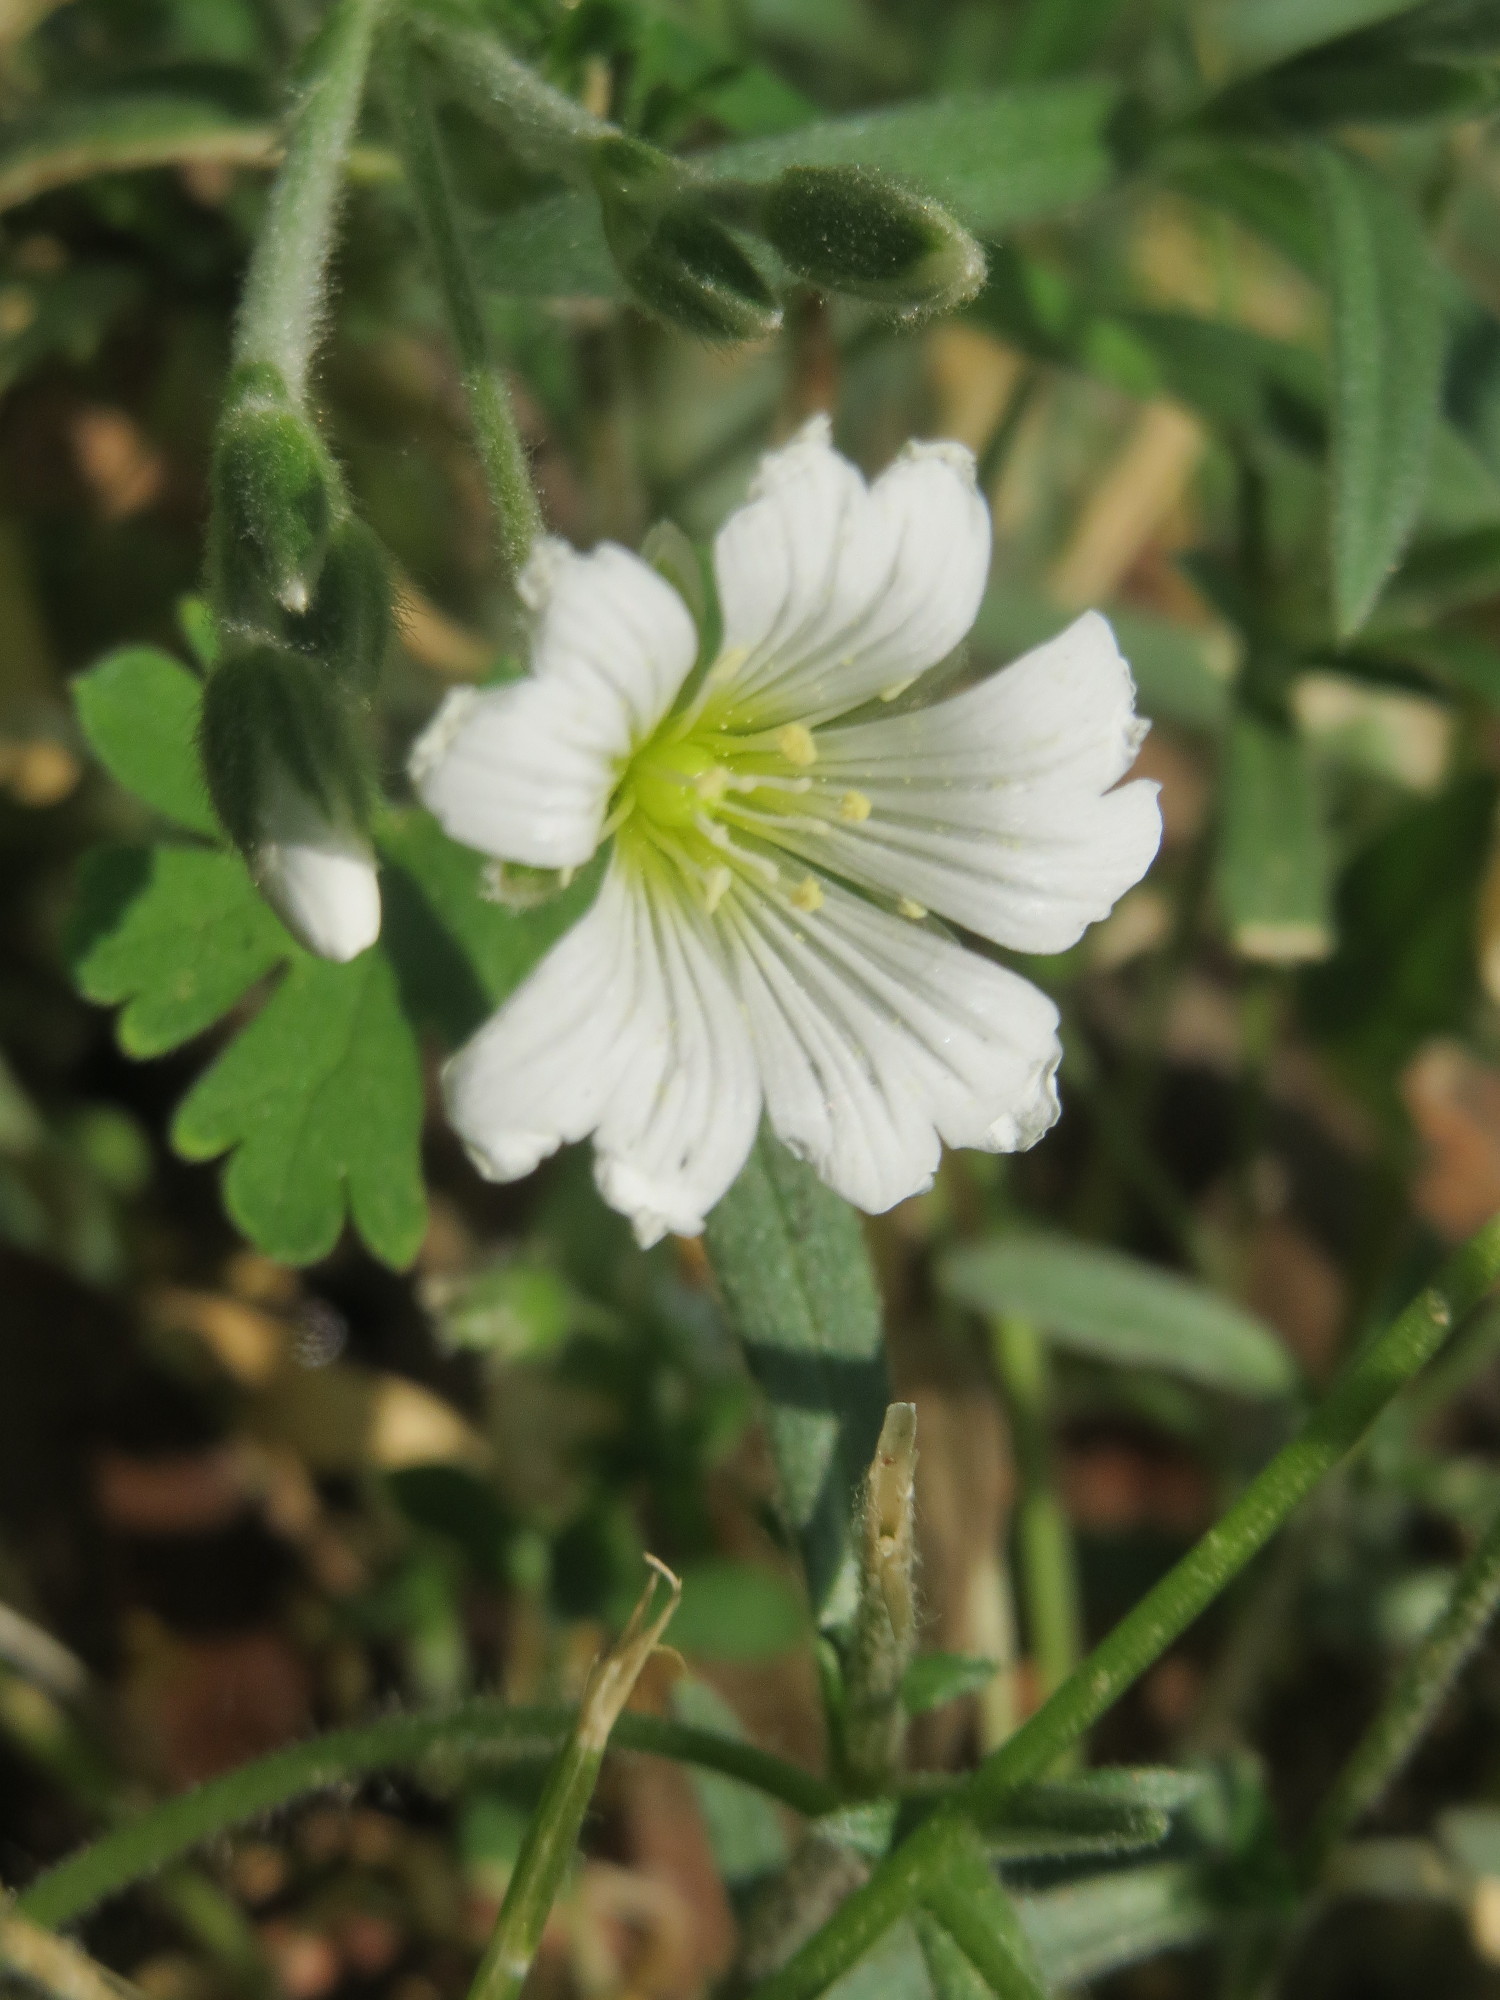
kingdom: Plantae
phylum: Tracheophyta
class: Magnoliopsida
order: Caryophyllales
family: Caryophyllaceae
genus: Cerastium
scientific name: Cerastium arvense
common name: Field mouse-ear
